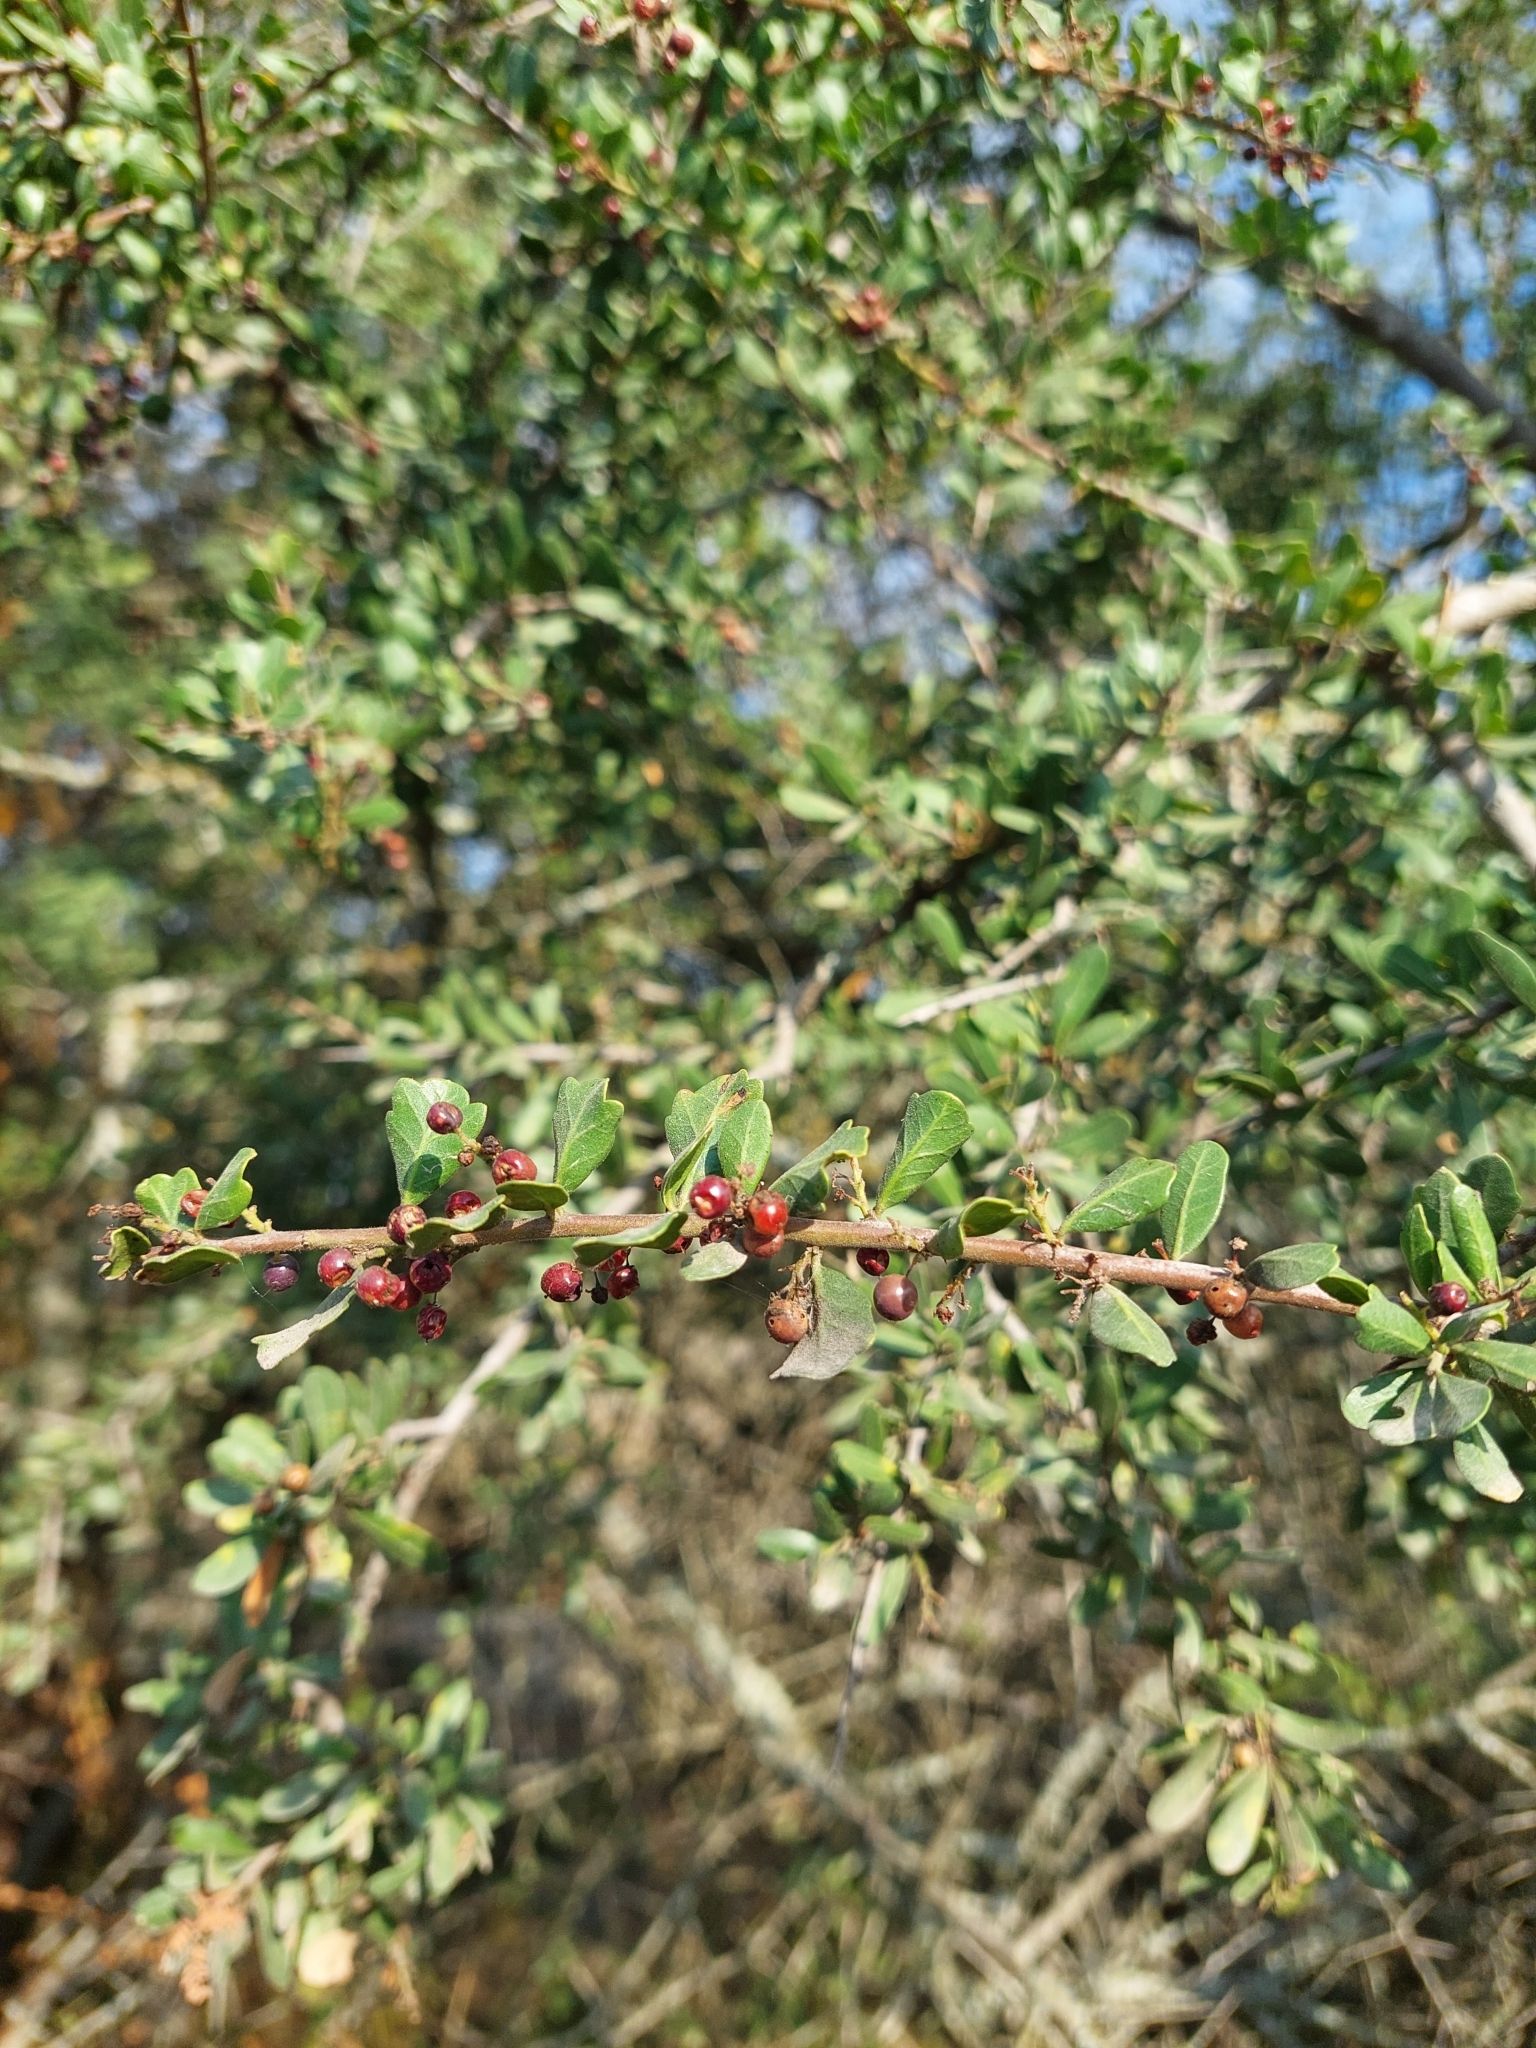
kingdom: Plantae
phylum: Tracheophyta
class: Magnoliopsida
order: Sapindales
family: Anacardiaceae
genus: Schinus
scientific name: Schinus fasciculata
